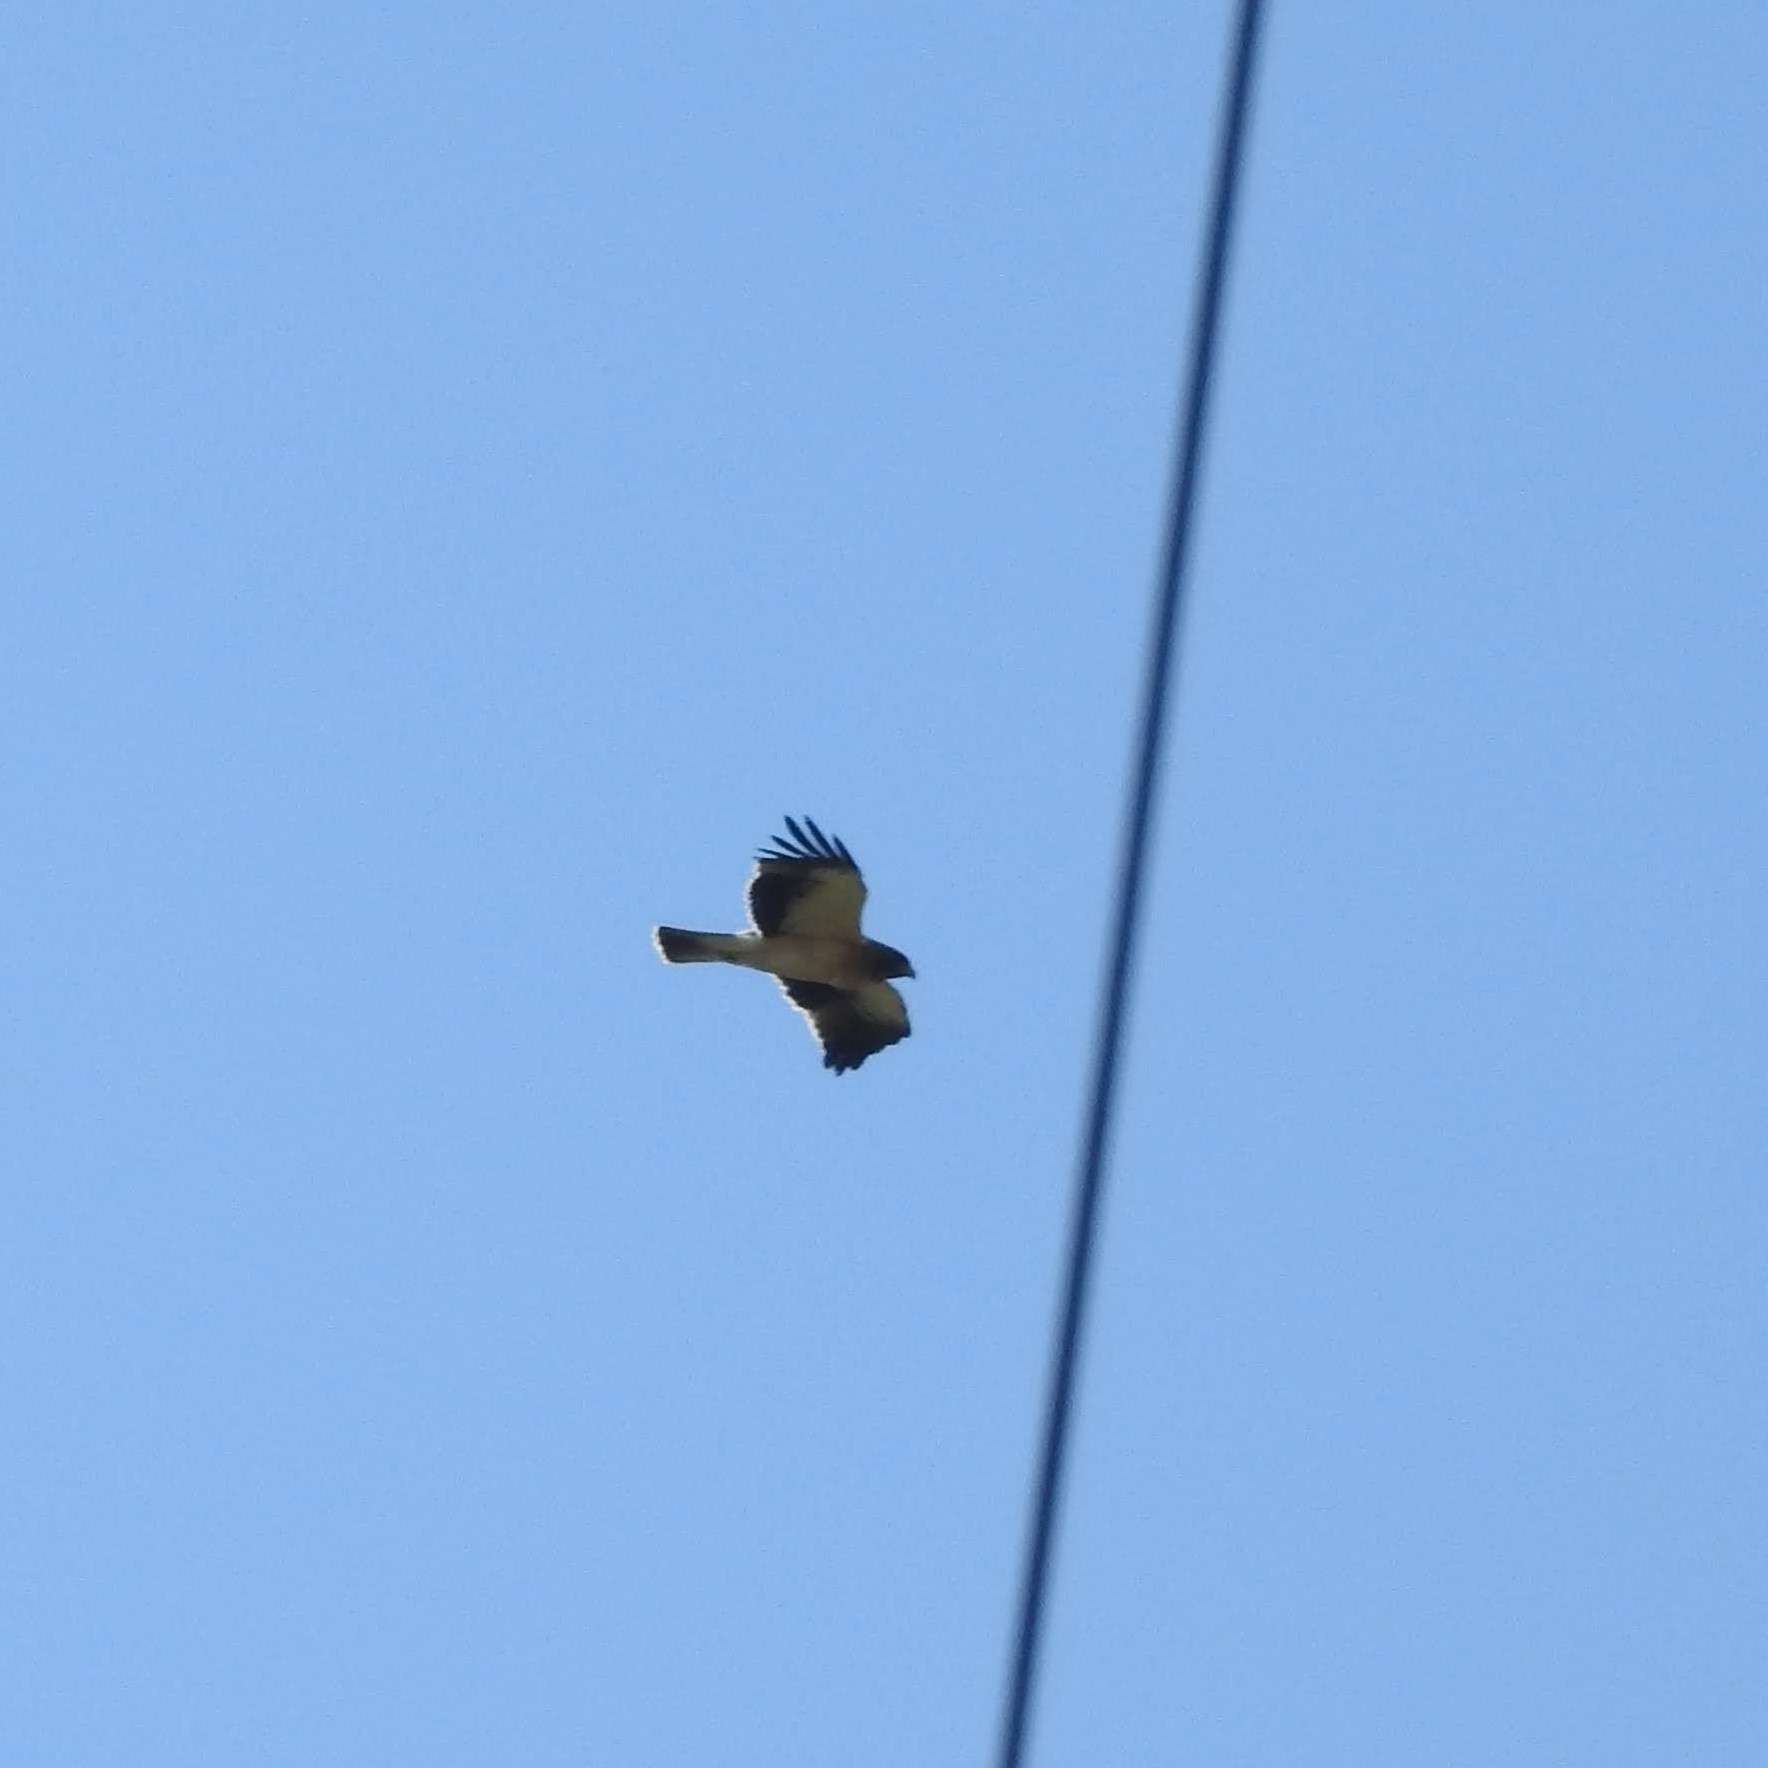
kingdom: Animalia
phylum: Chordata
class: Aves
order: Accipitriformes
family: Accipitridae
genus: Hieraaetus
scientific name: Hieraaetus pennatus
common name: Booted eagle
